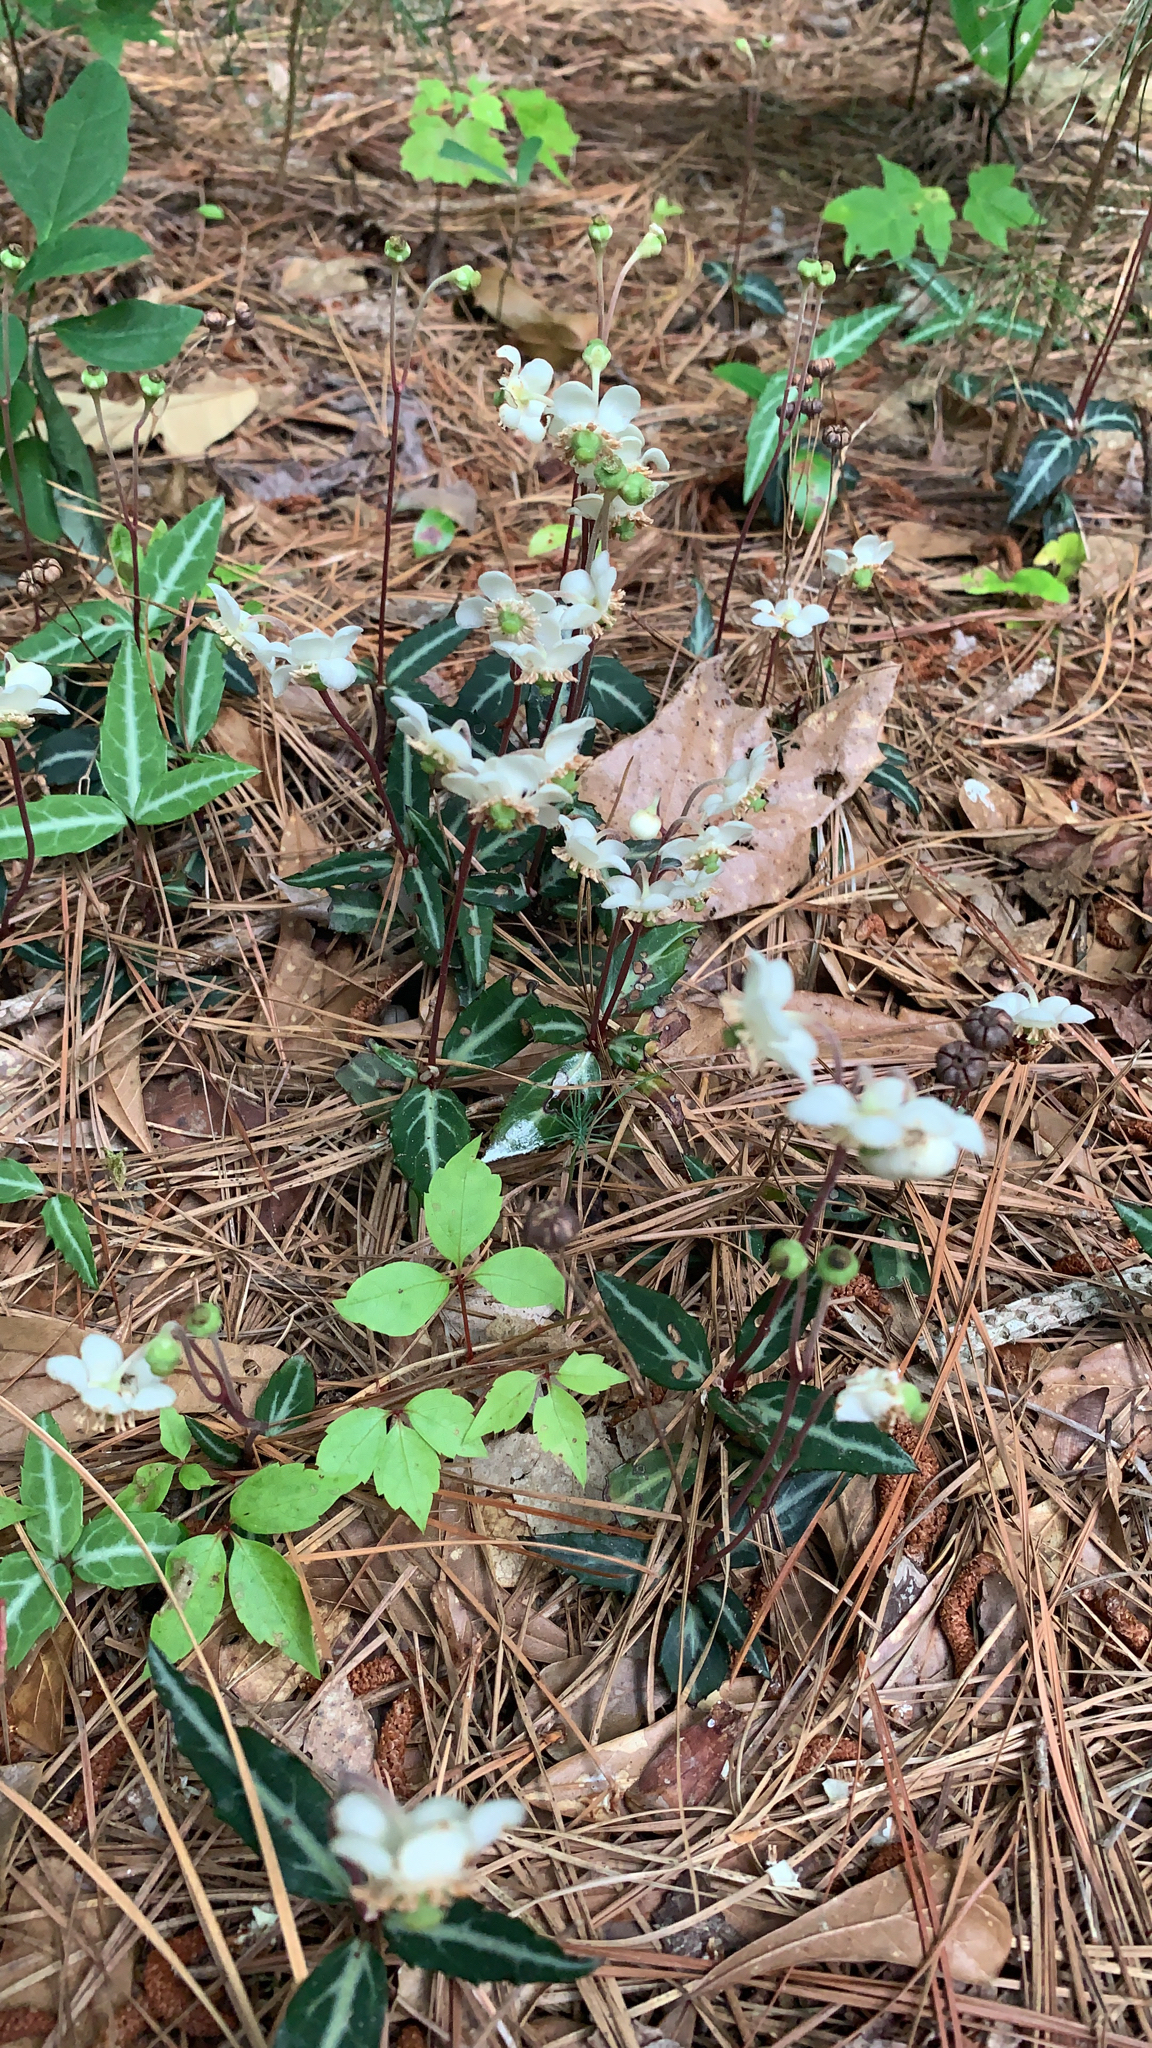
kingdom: Plantae
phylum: Tracheophyta
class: Magnoliopsida
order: Ericales
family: Ericaceae
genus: Chimaphila
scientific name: Chimaphila maculata
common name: Spotted pipsissewa
